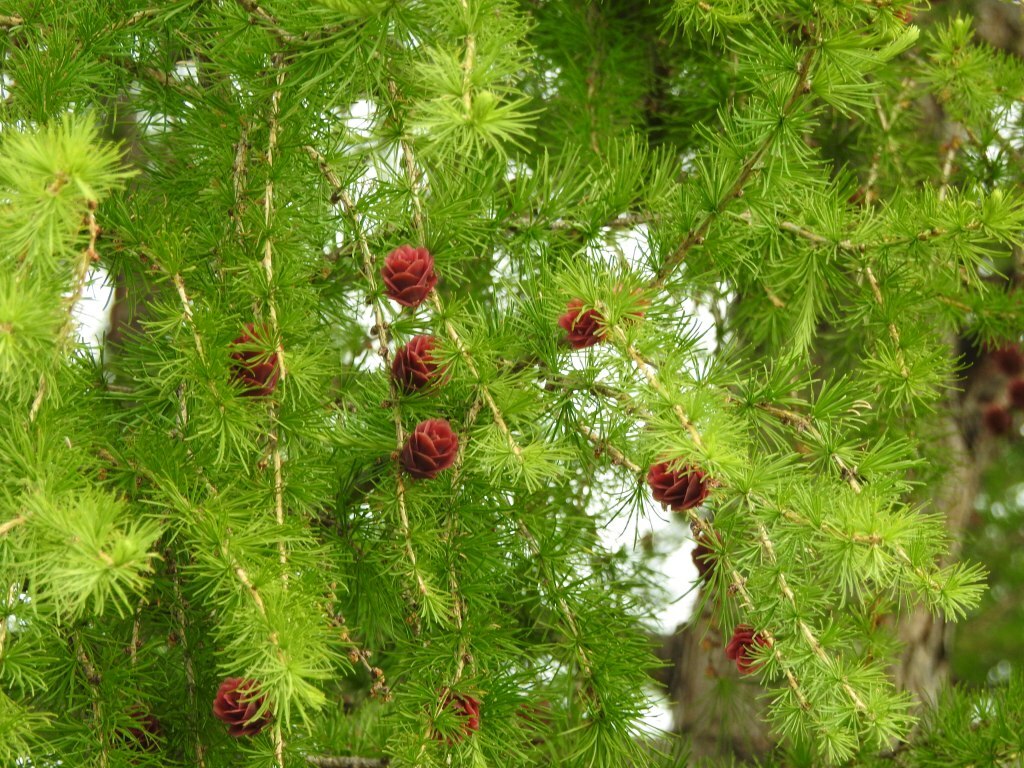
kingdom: Plantae
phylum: Tracheophyta
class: Pinopsida
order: Pinales
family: Pinaceae
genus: Larix
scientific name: Larix sibirica
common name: Siberian larch
